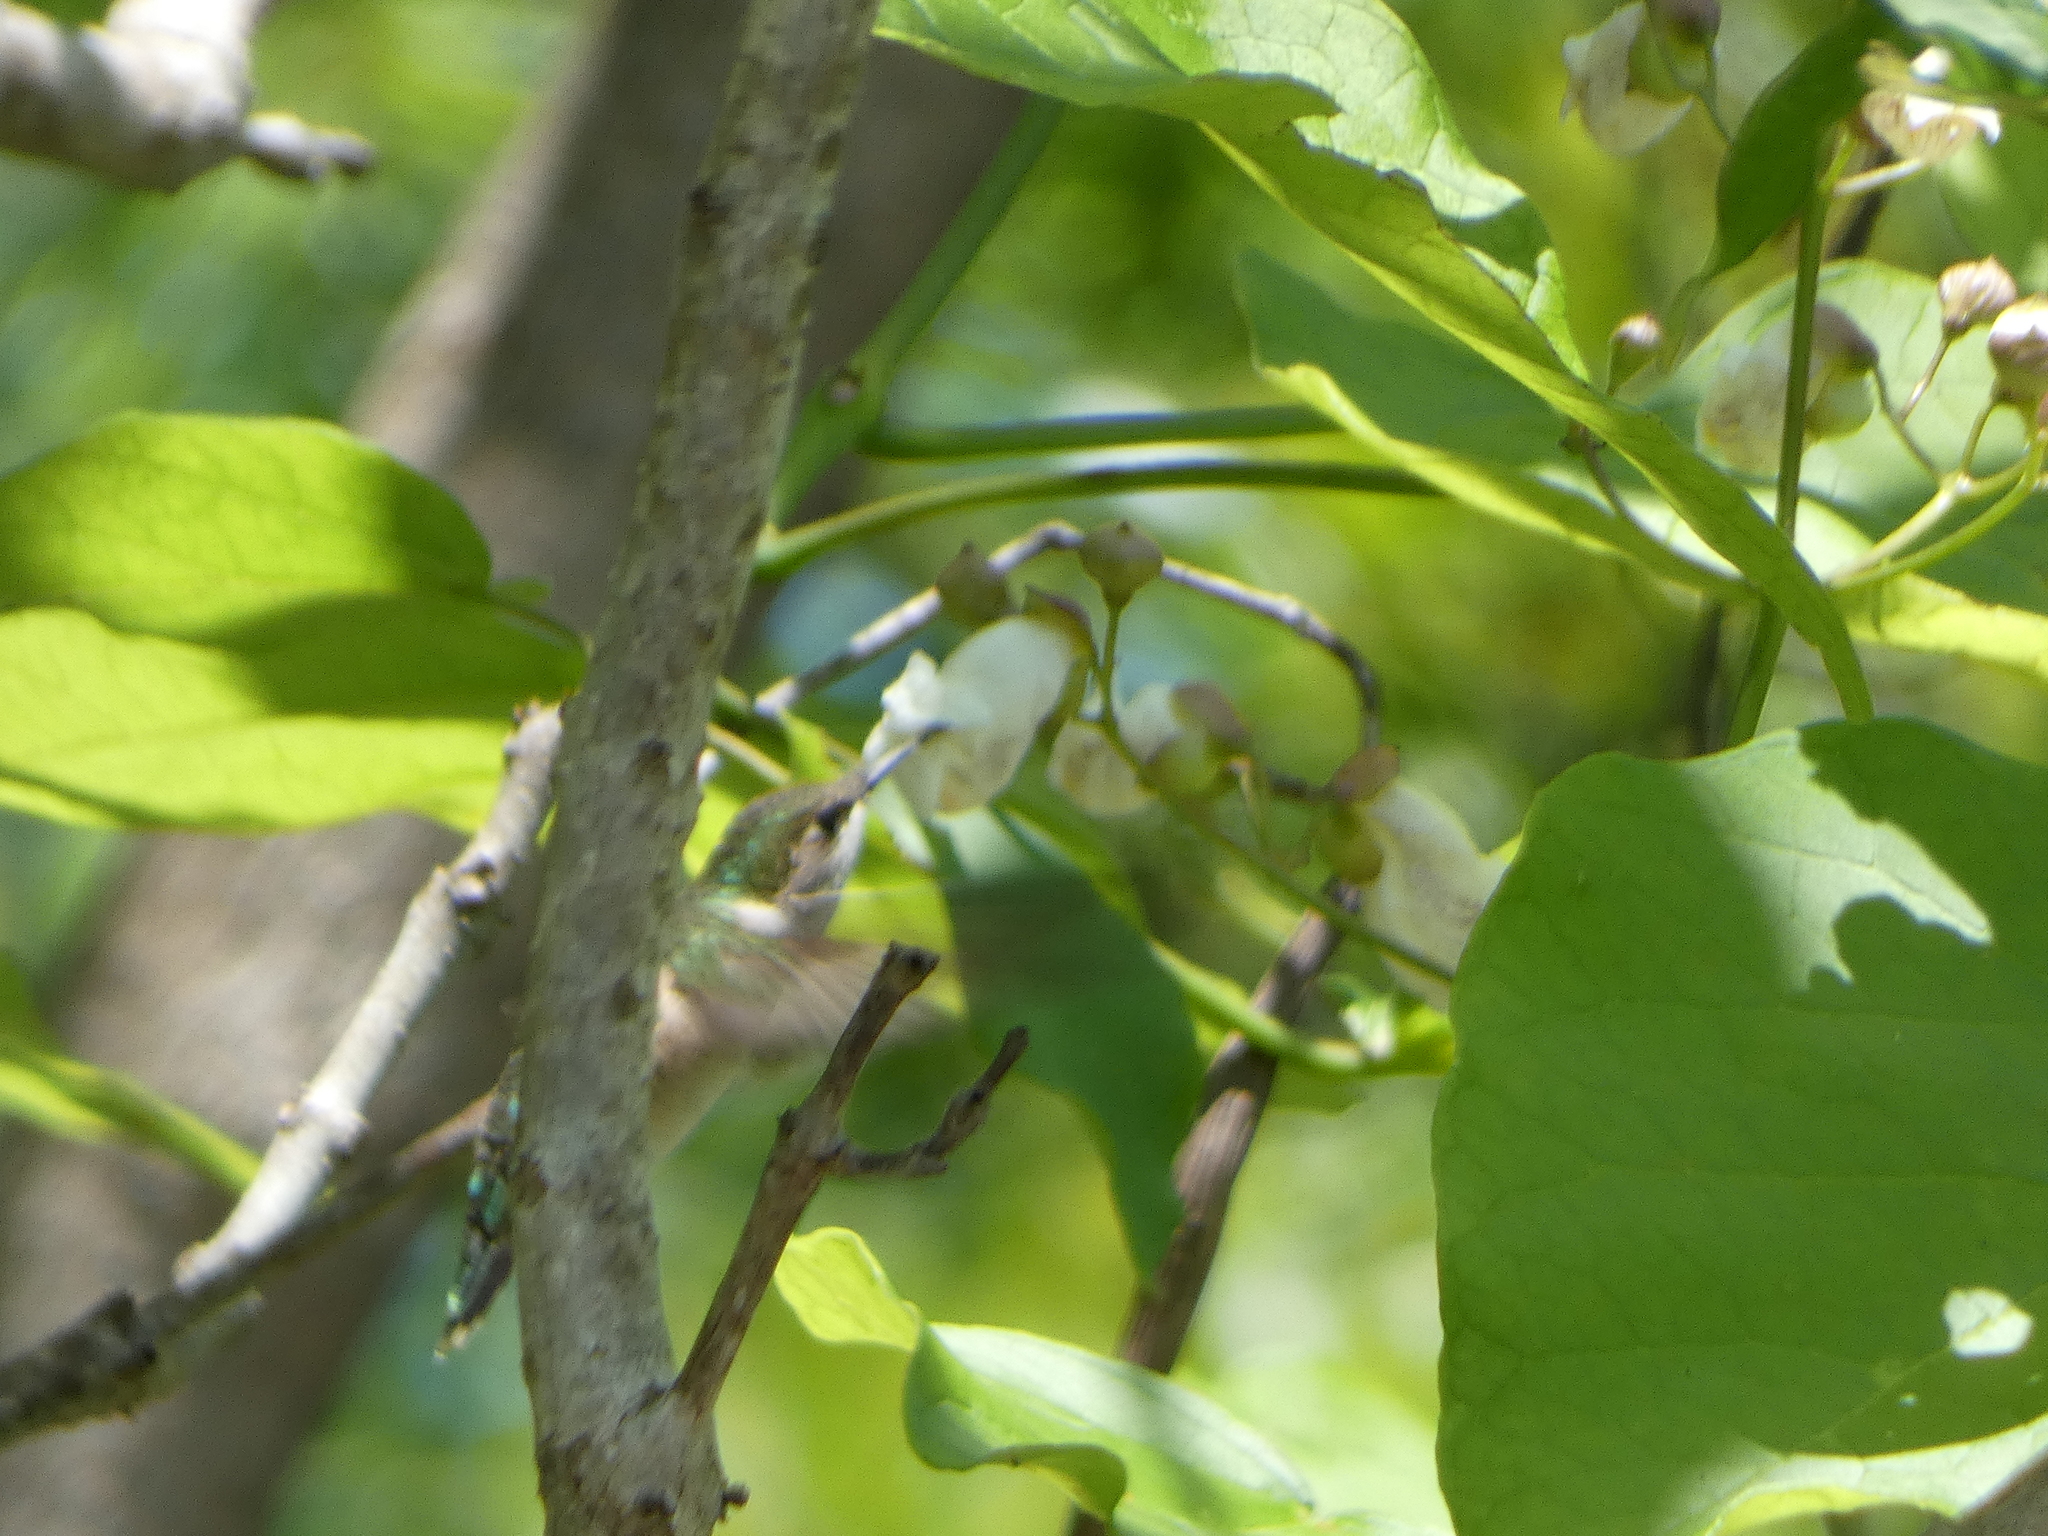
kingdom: Animalia
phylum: Chordata
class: Aves
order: Apodiformes
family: Trochilidae
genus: Archilochus
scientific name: Archilochus colubris
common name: Ruby-throated hummingbird
